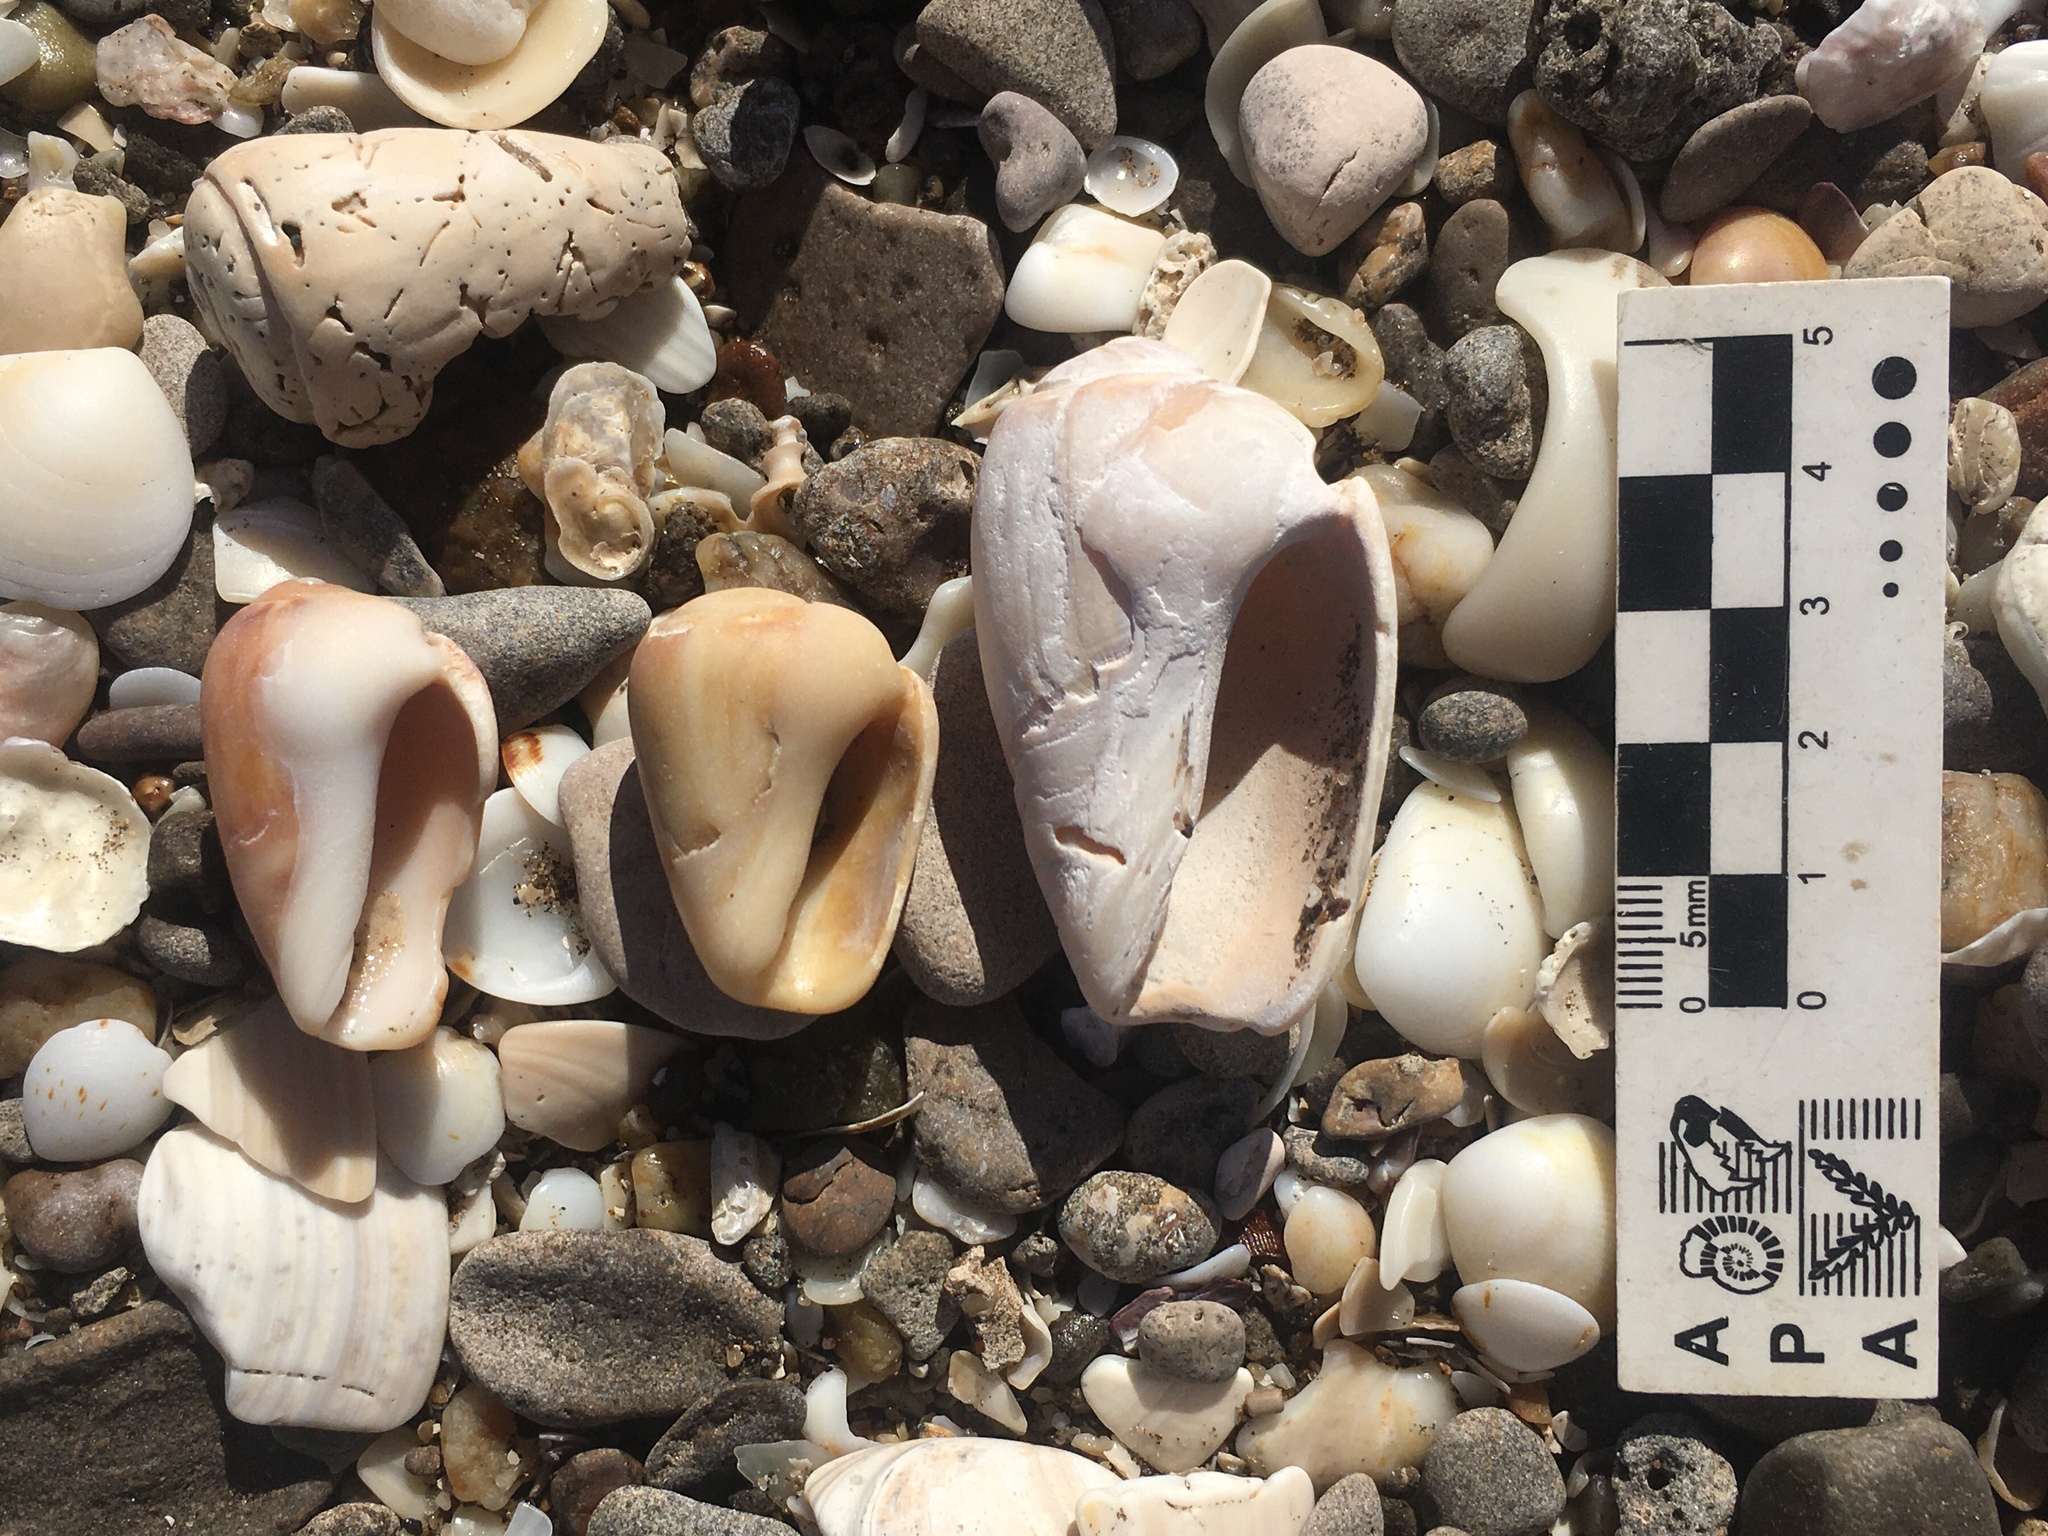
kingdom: Animalia
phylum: Mollusca
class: Gastropoda
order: Neogastropoda
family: Olividae
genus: Olivancillaria
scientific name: Olivancillaria urceus
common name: Bear ancilla
